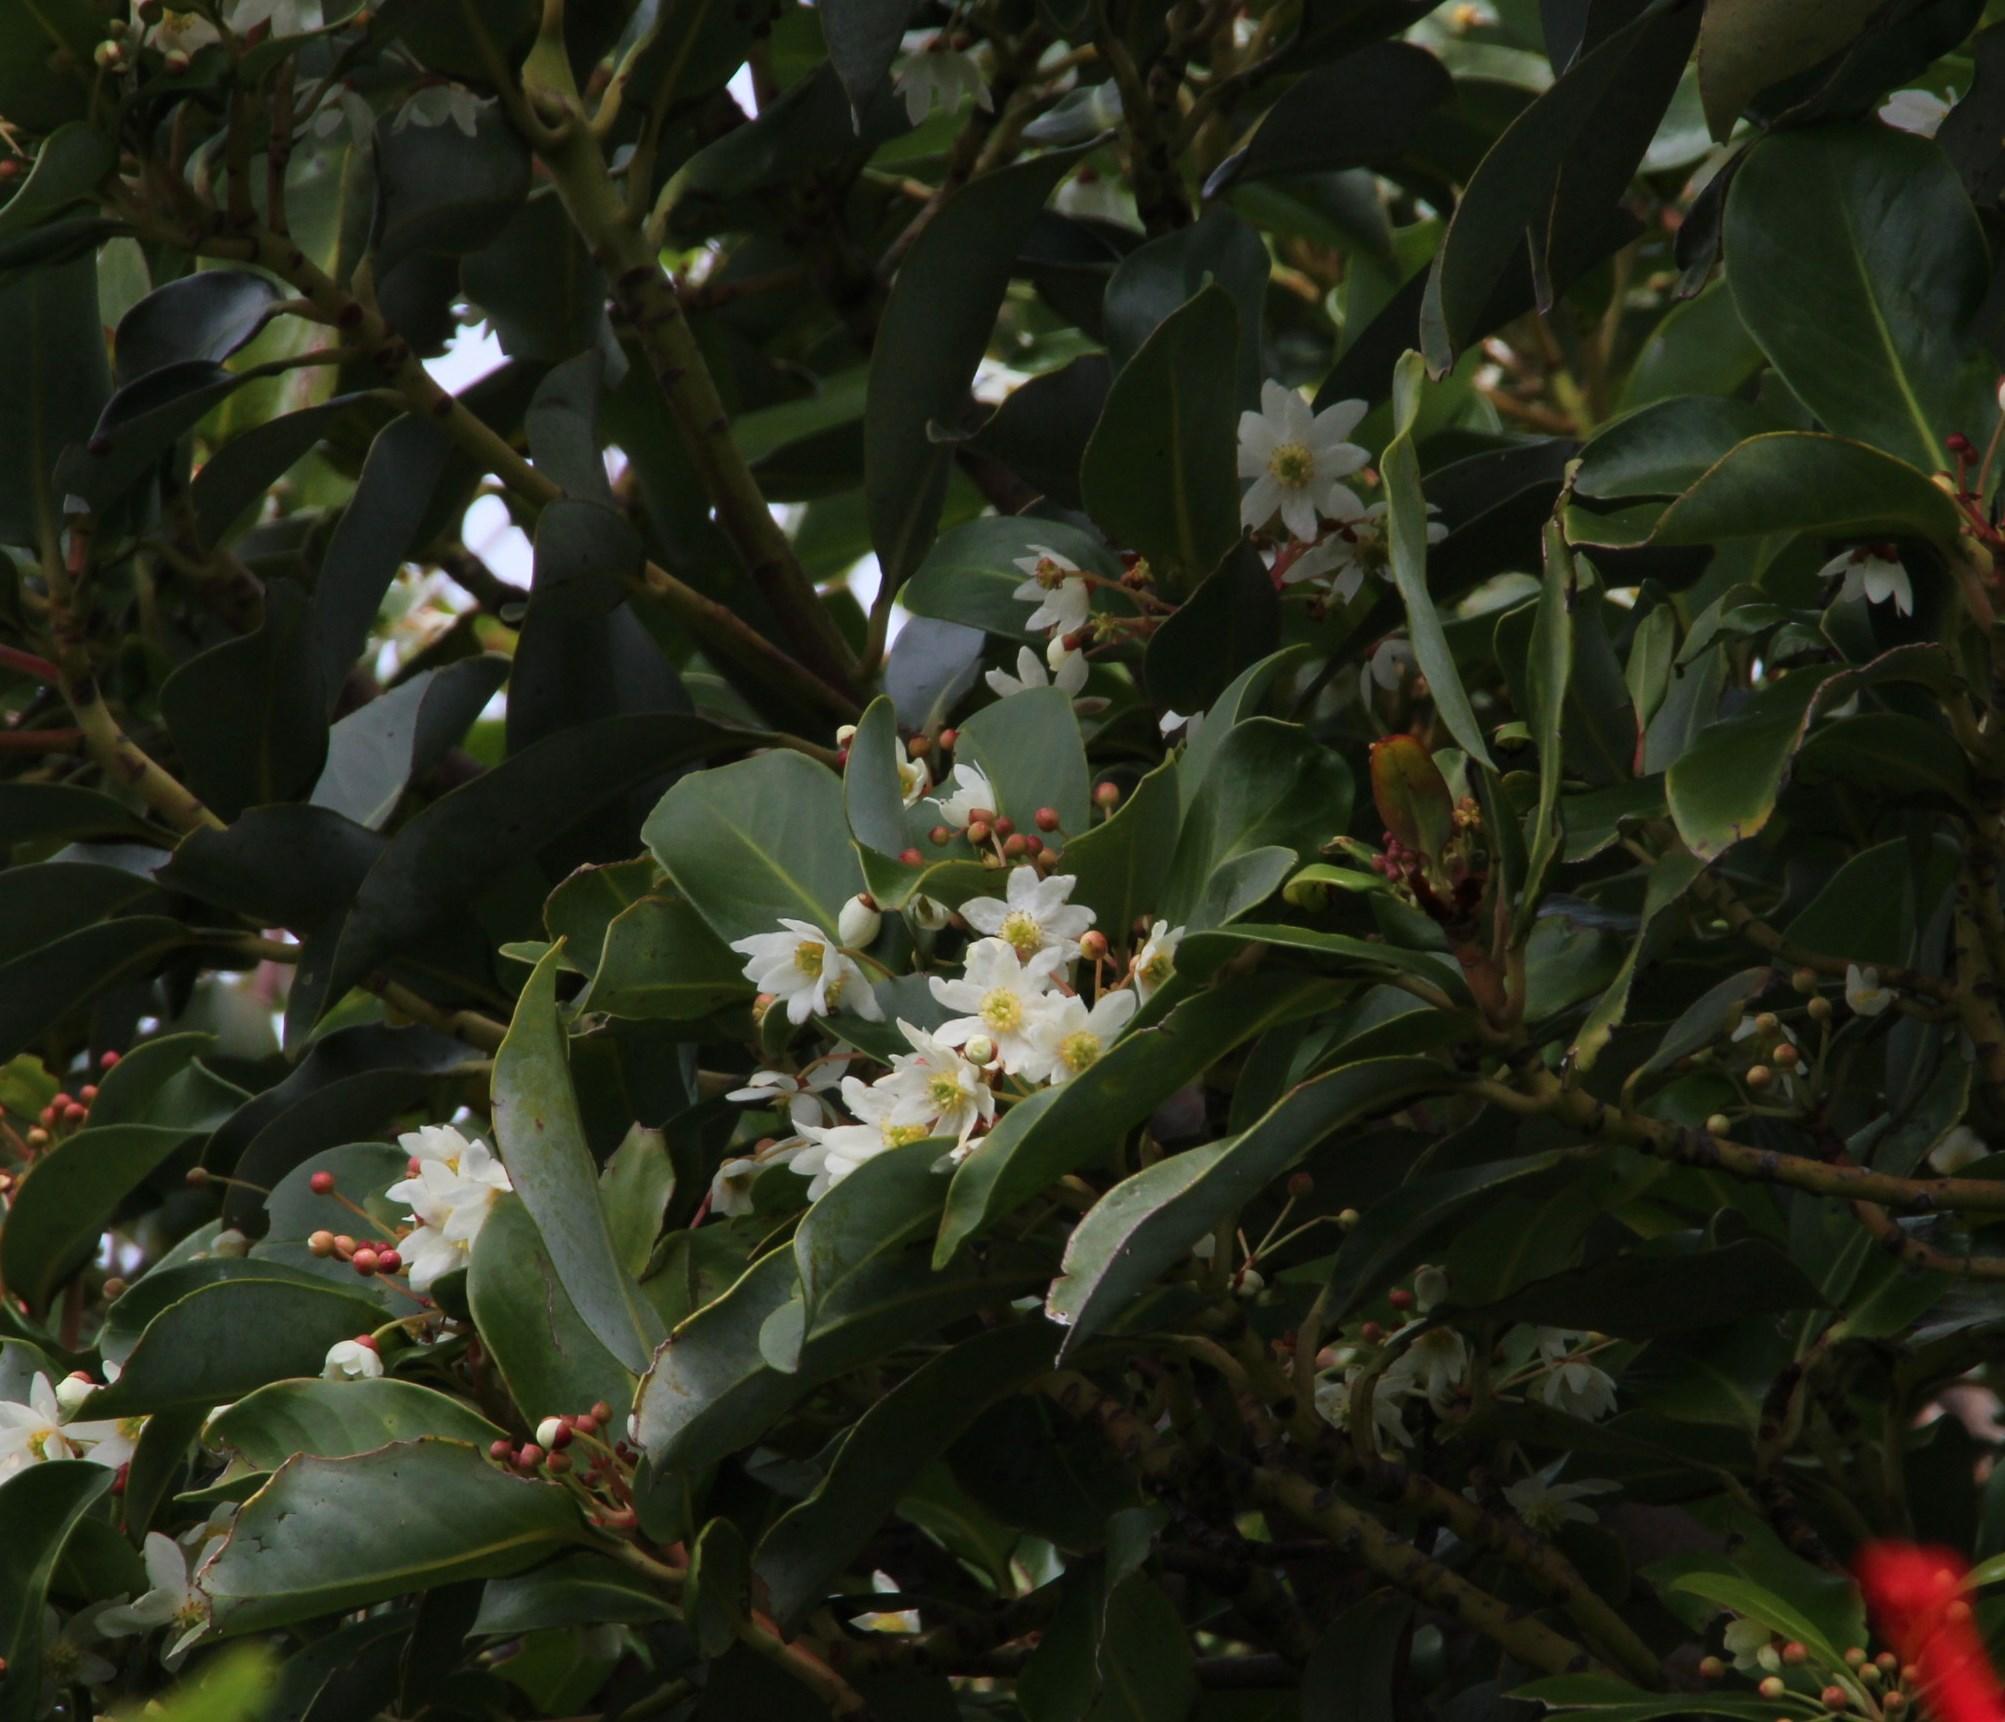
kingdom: Plantae
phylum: Tracheophyta
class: Magnoliopsida
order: Canellales
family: Winteraceae
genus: Drimys
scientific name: Drimys winteri
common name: Winter's-bark
